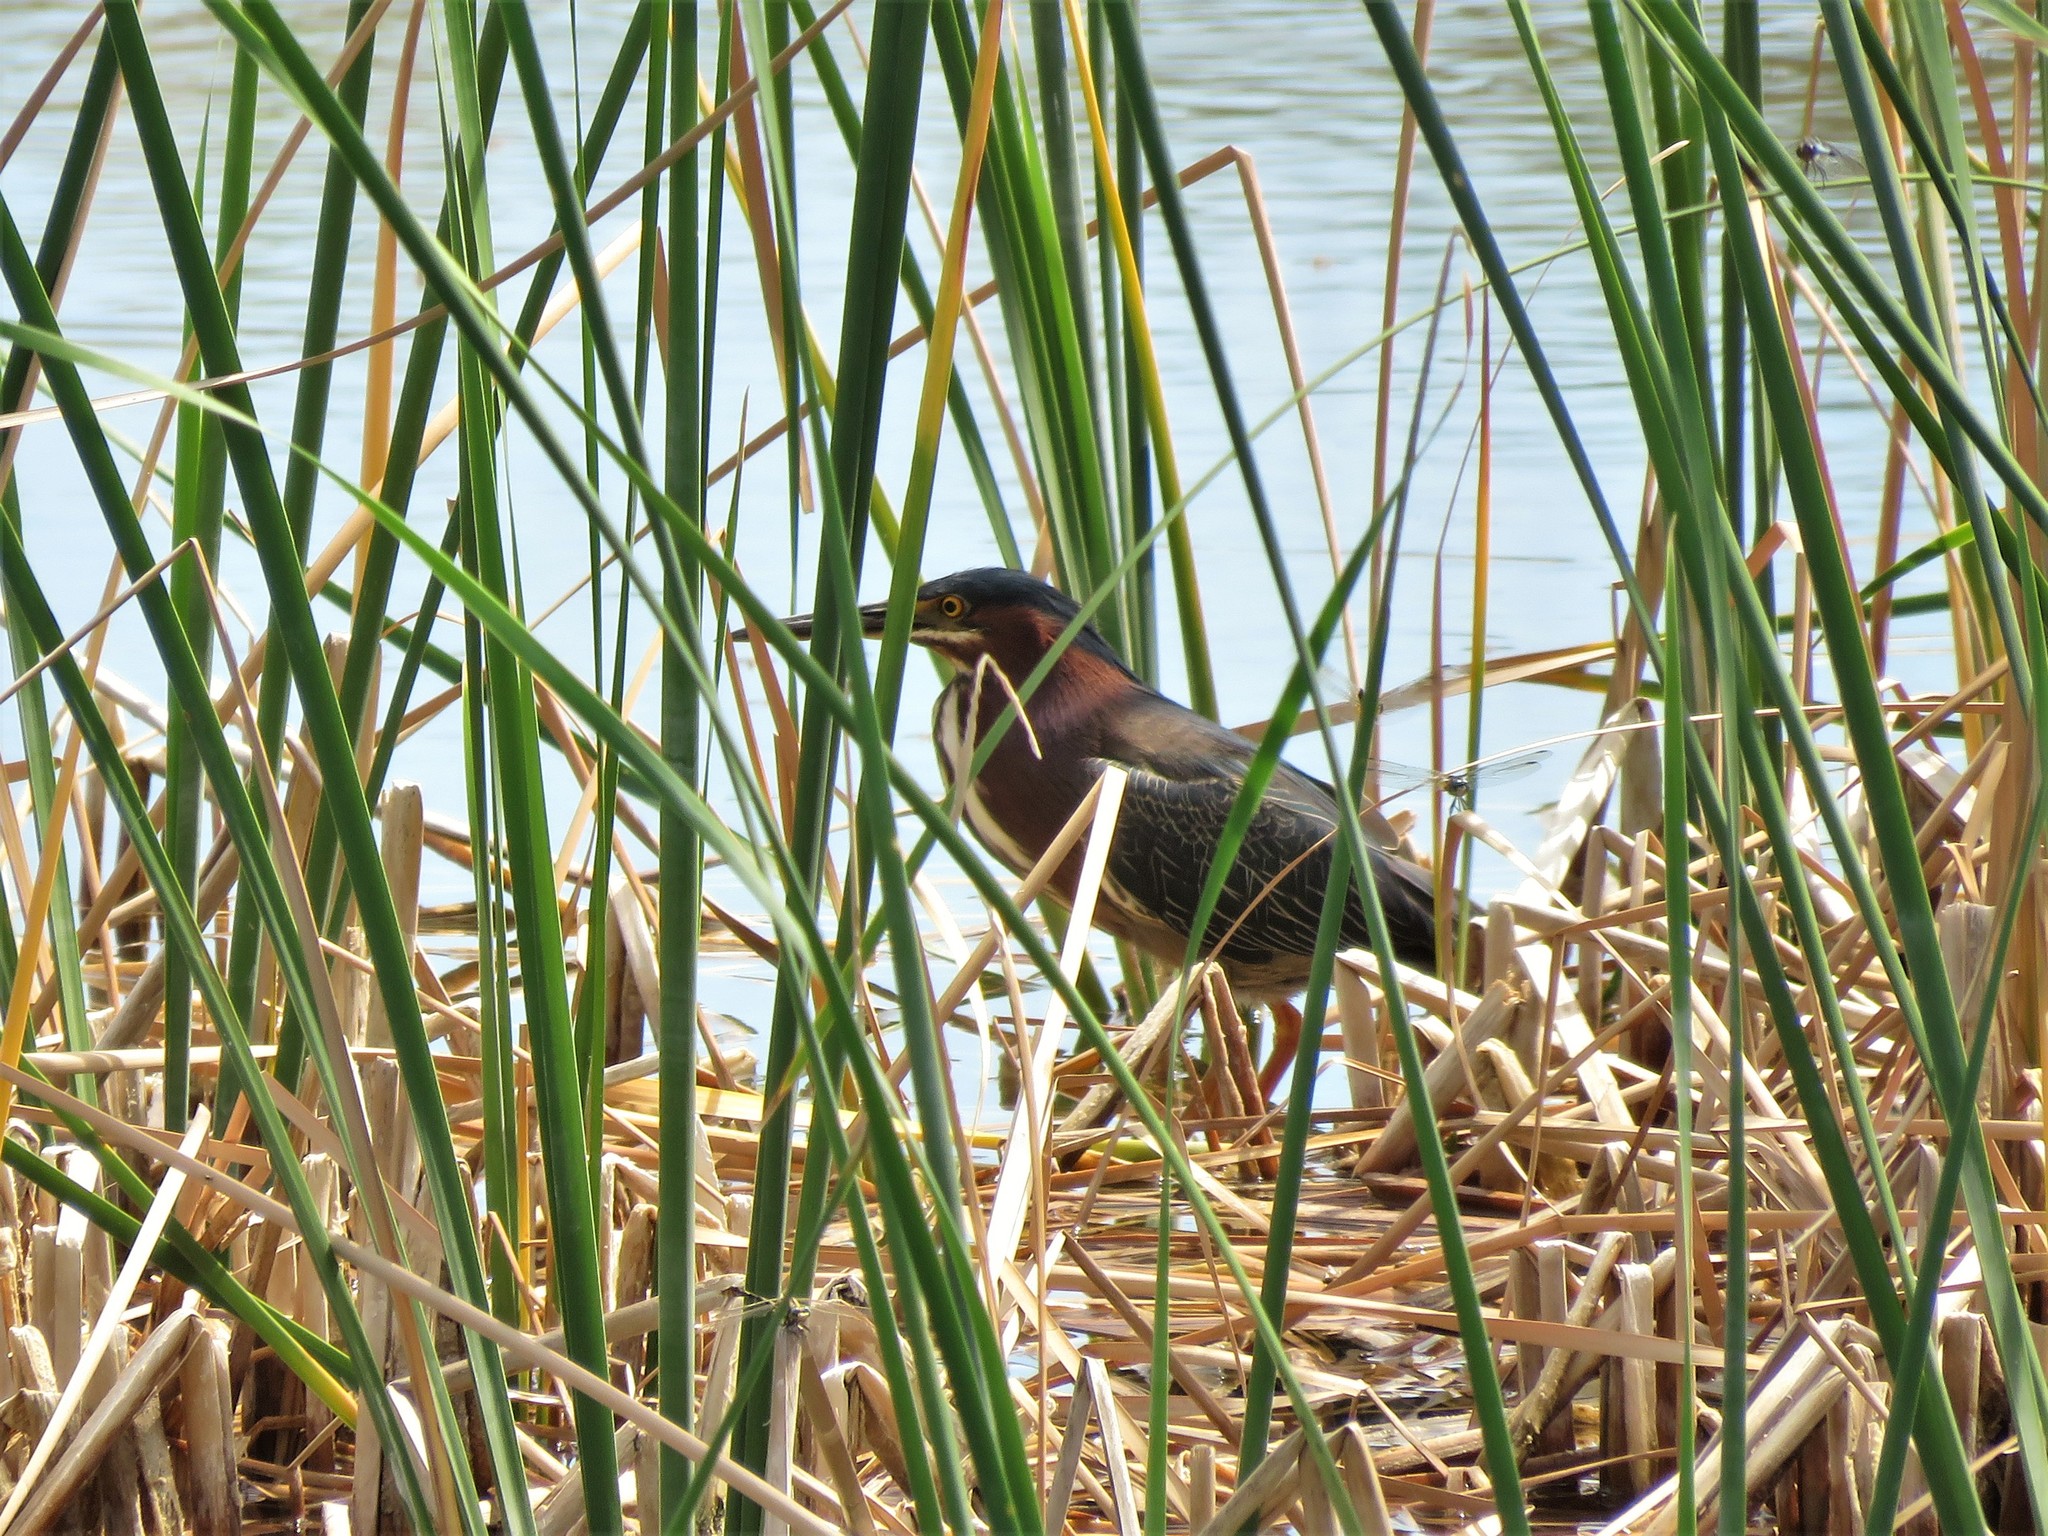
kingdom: Animalia
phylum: Chordata
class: Aves
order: Pelecaniformes
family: Ardeidae
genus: Butorides
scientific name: Butorides virescens
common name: Green heron
